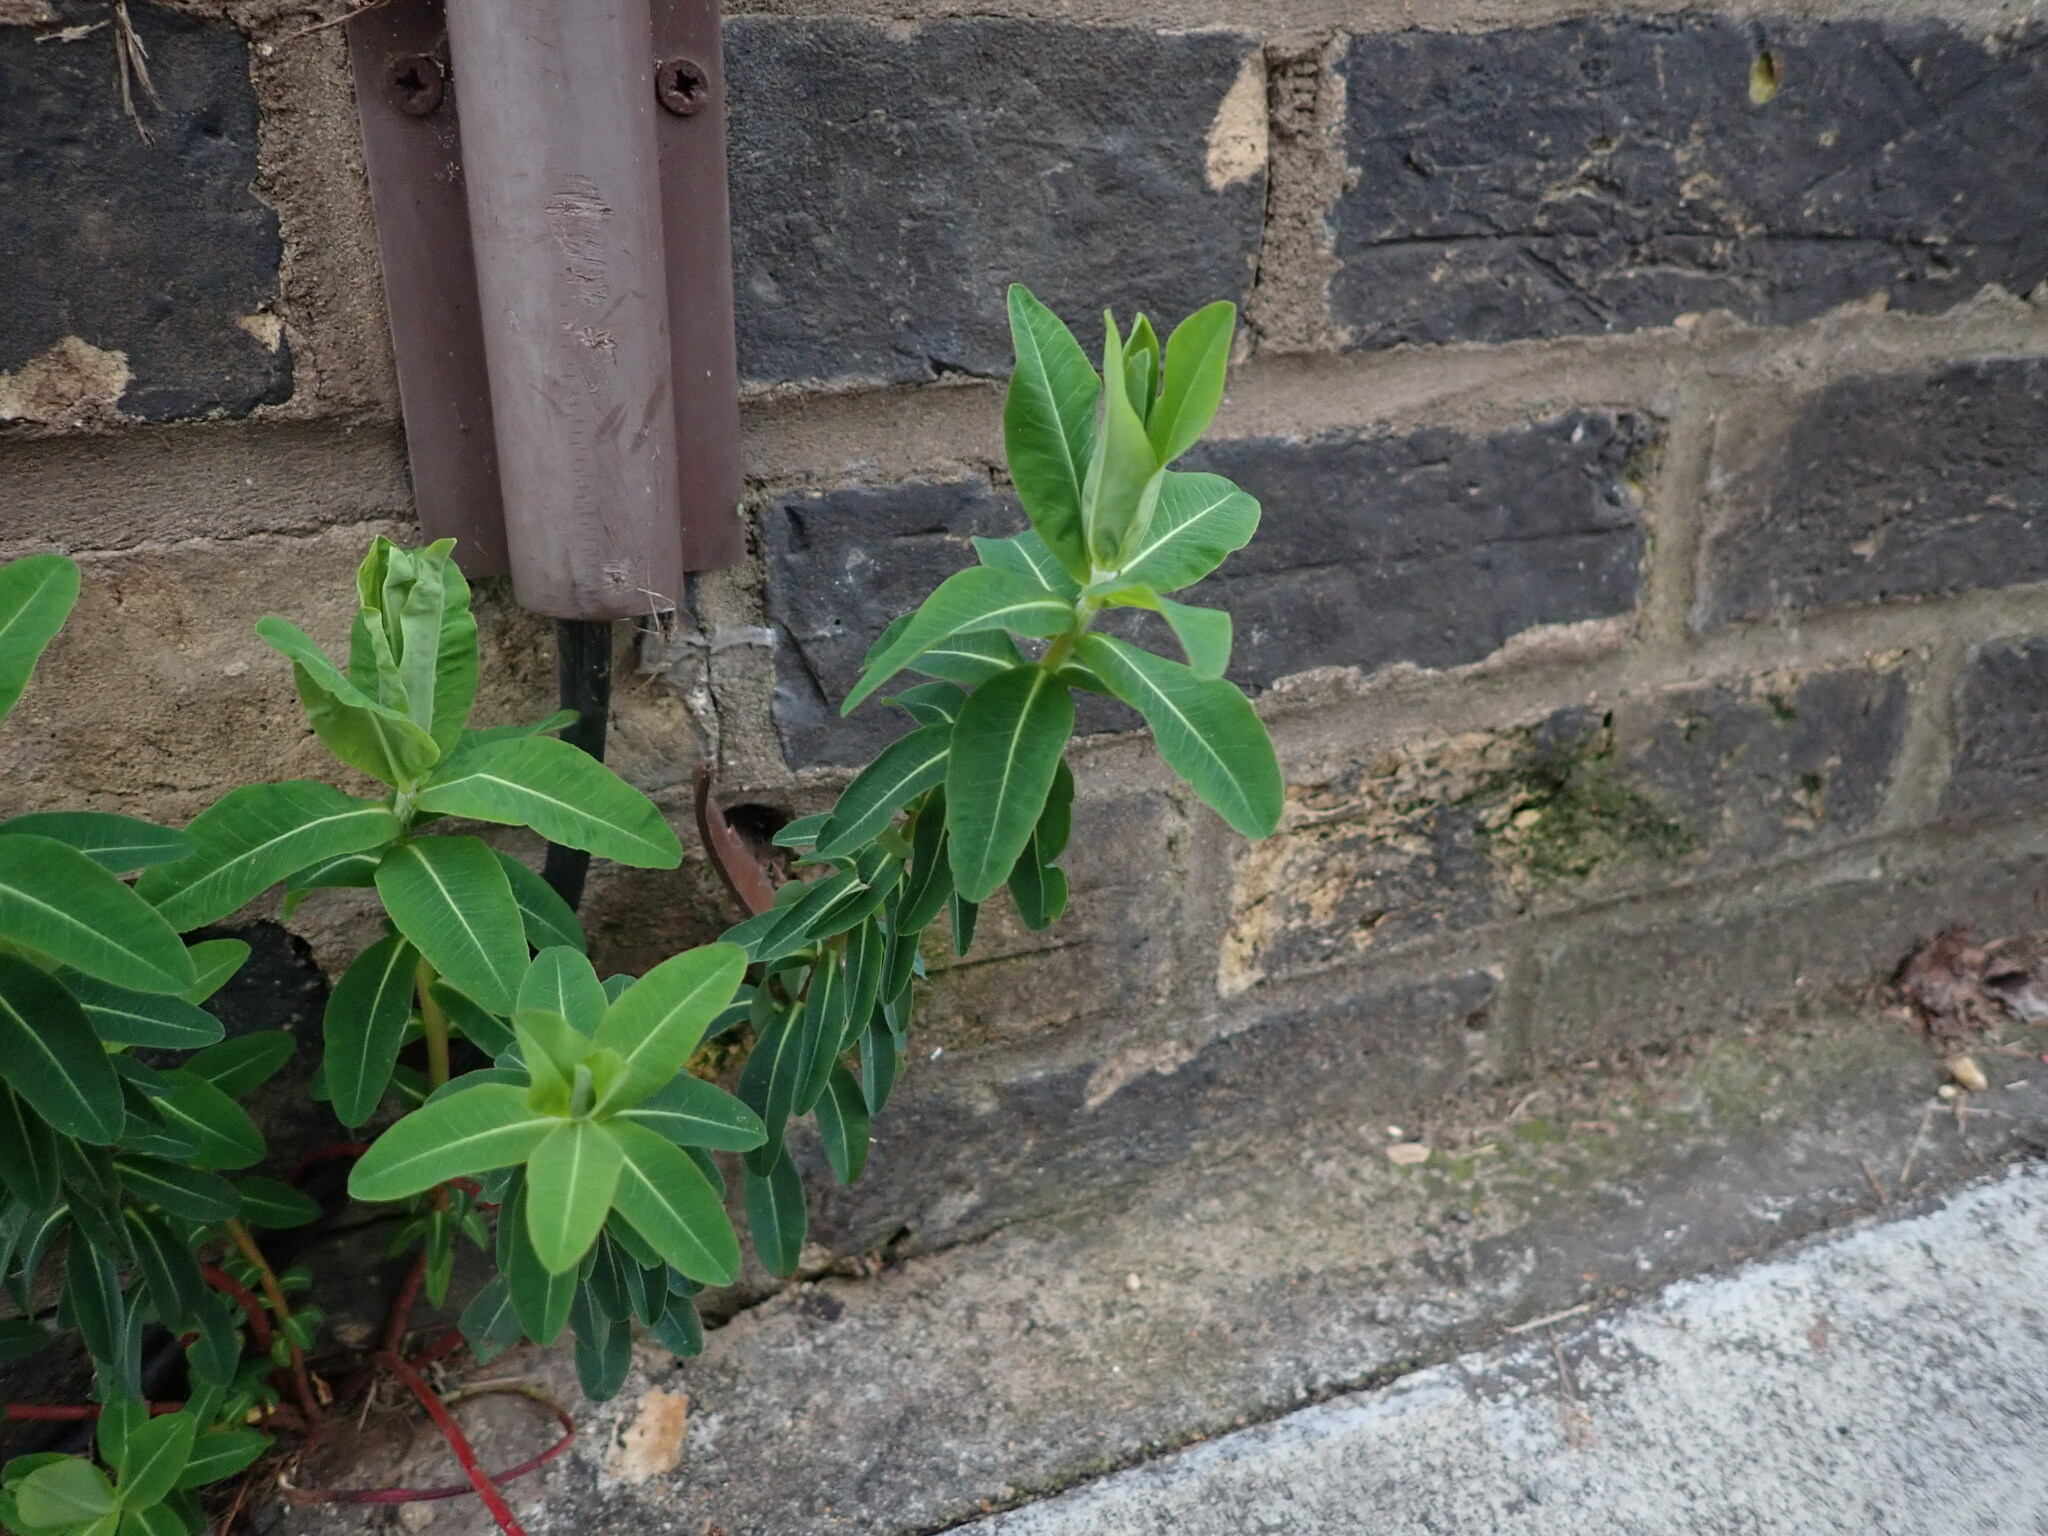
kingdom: Plantae
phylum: Tracheophyta
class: Magnoliopsida
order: Malpighiales
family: Euphorbiaceae
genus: Euphorbia
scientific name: Euphorbia oblongata
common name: Balkan spurge
